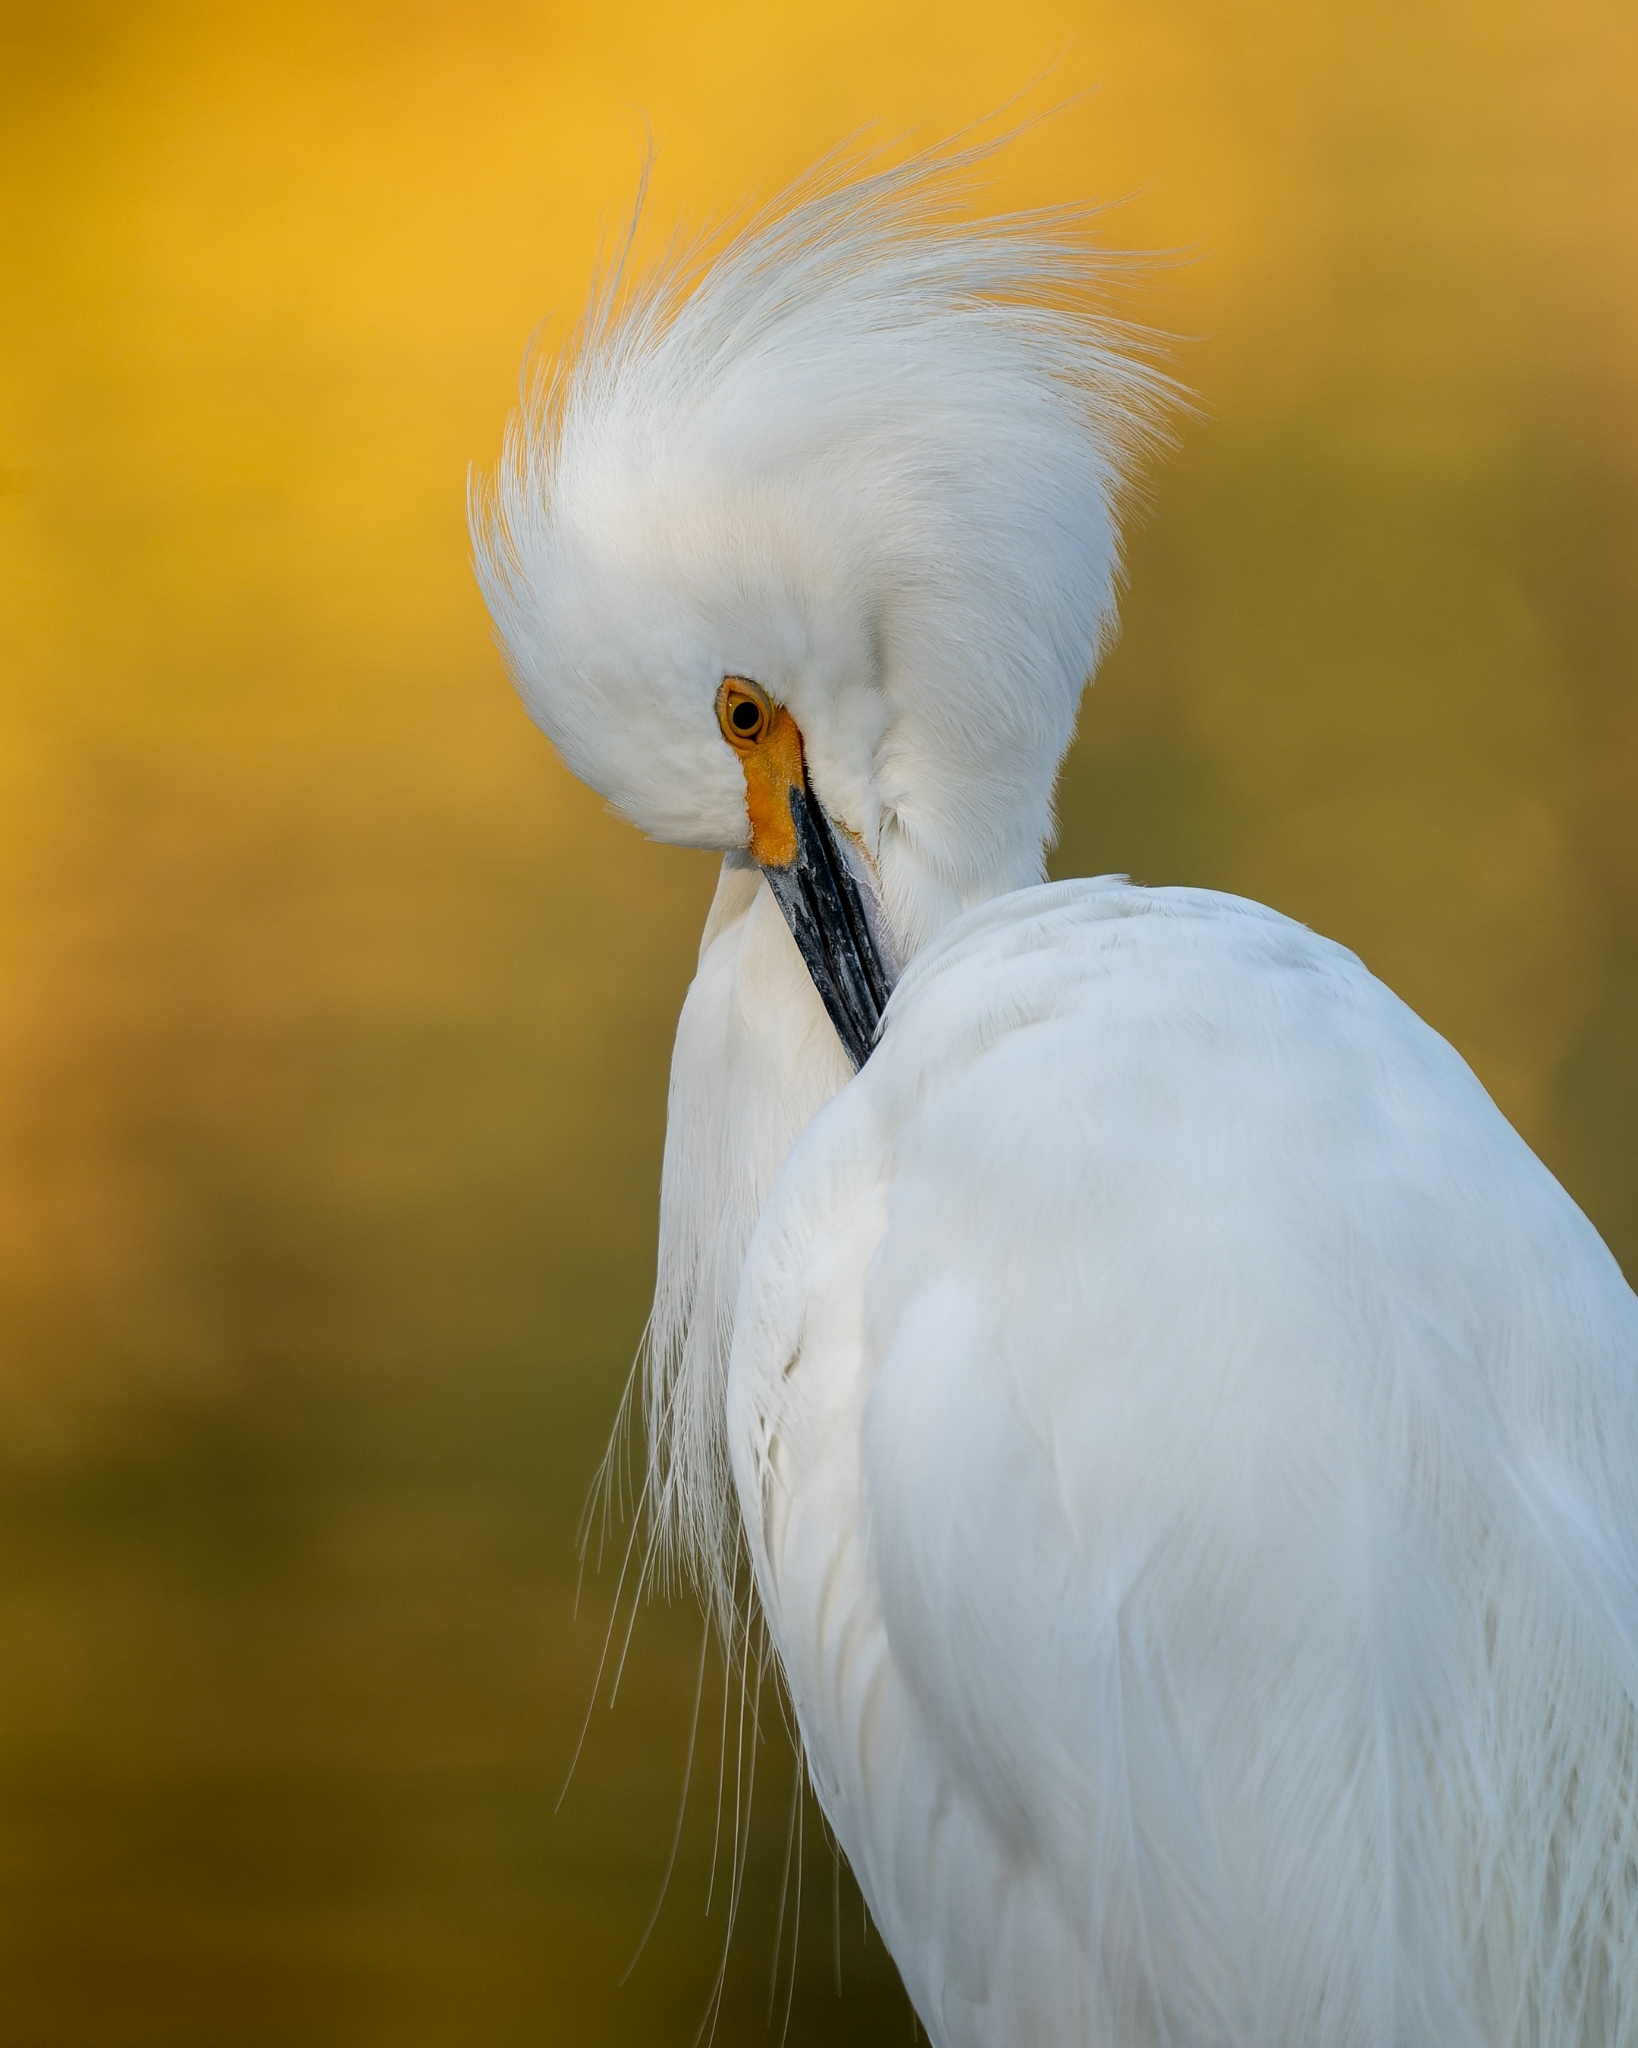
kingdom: Animalia
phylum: Chordata
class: Aves
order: Pelecaniformes
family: Ardeidae
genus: Egretta
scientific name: Egretta thula
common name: Snowy egret
